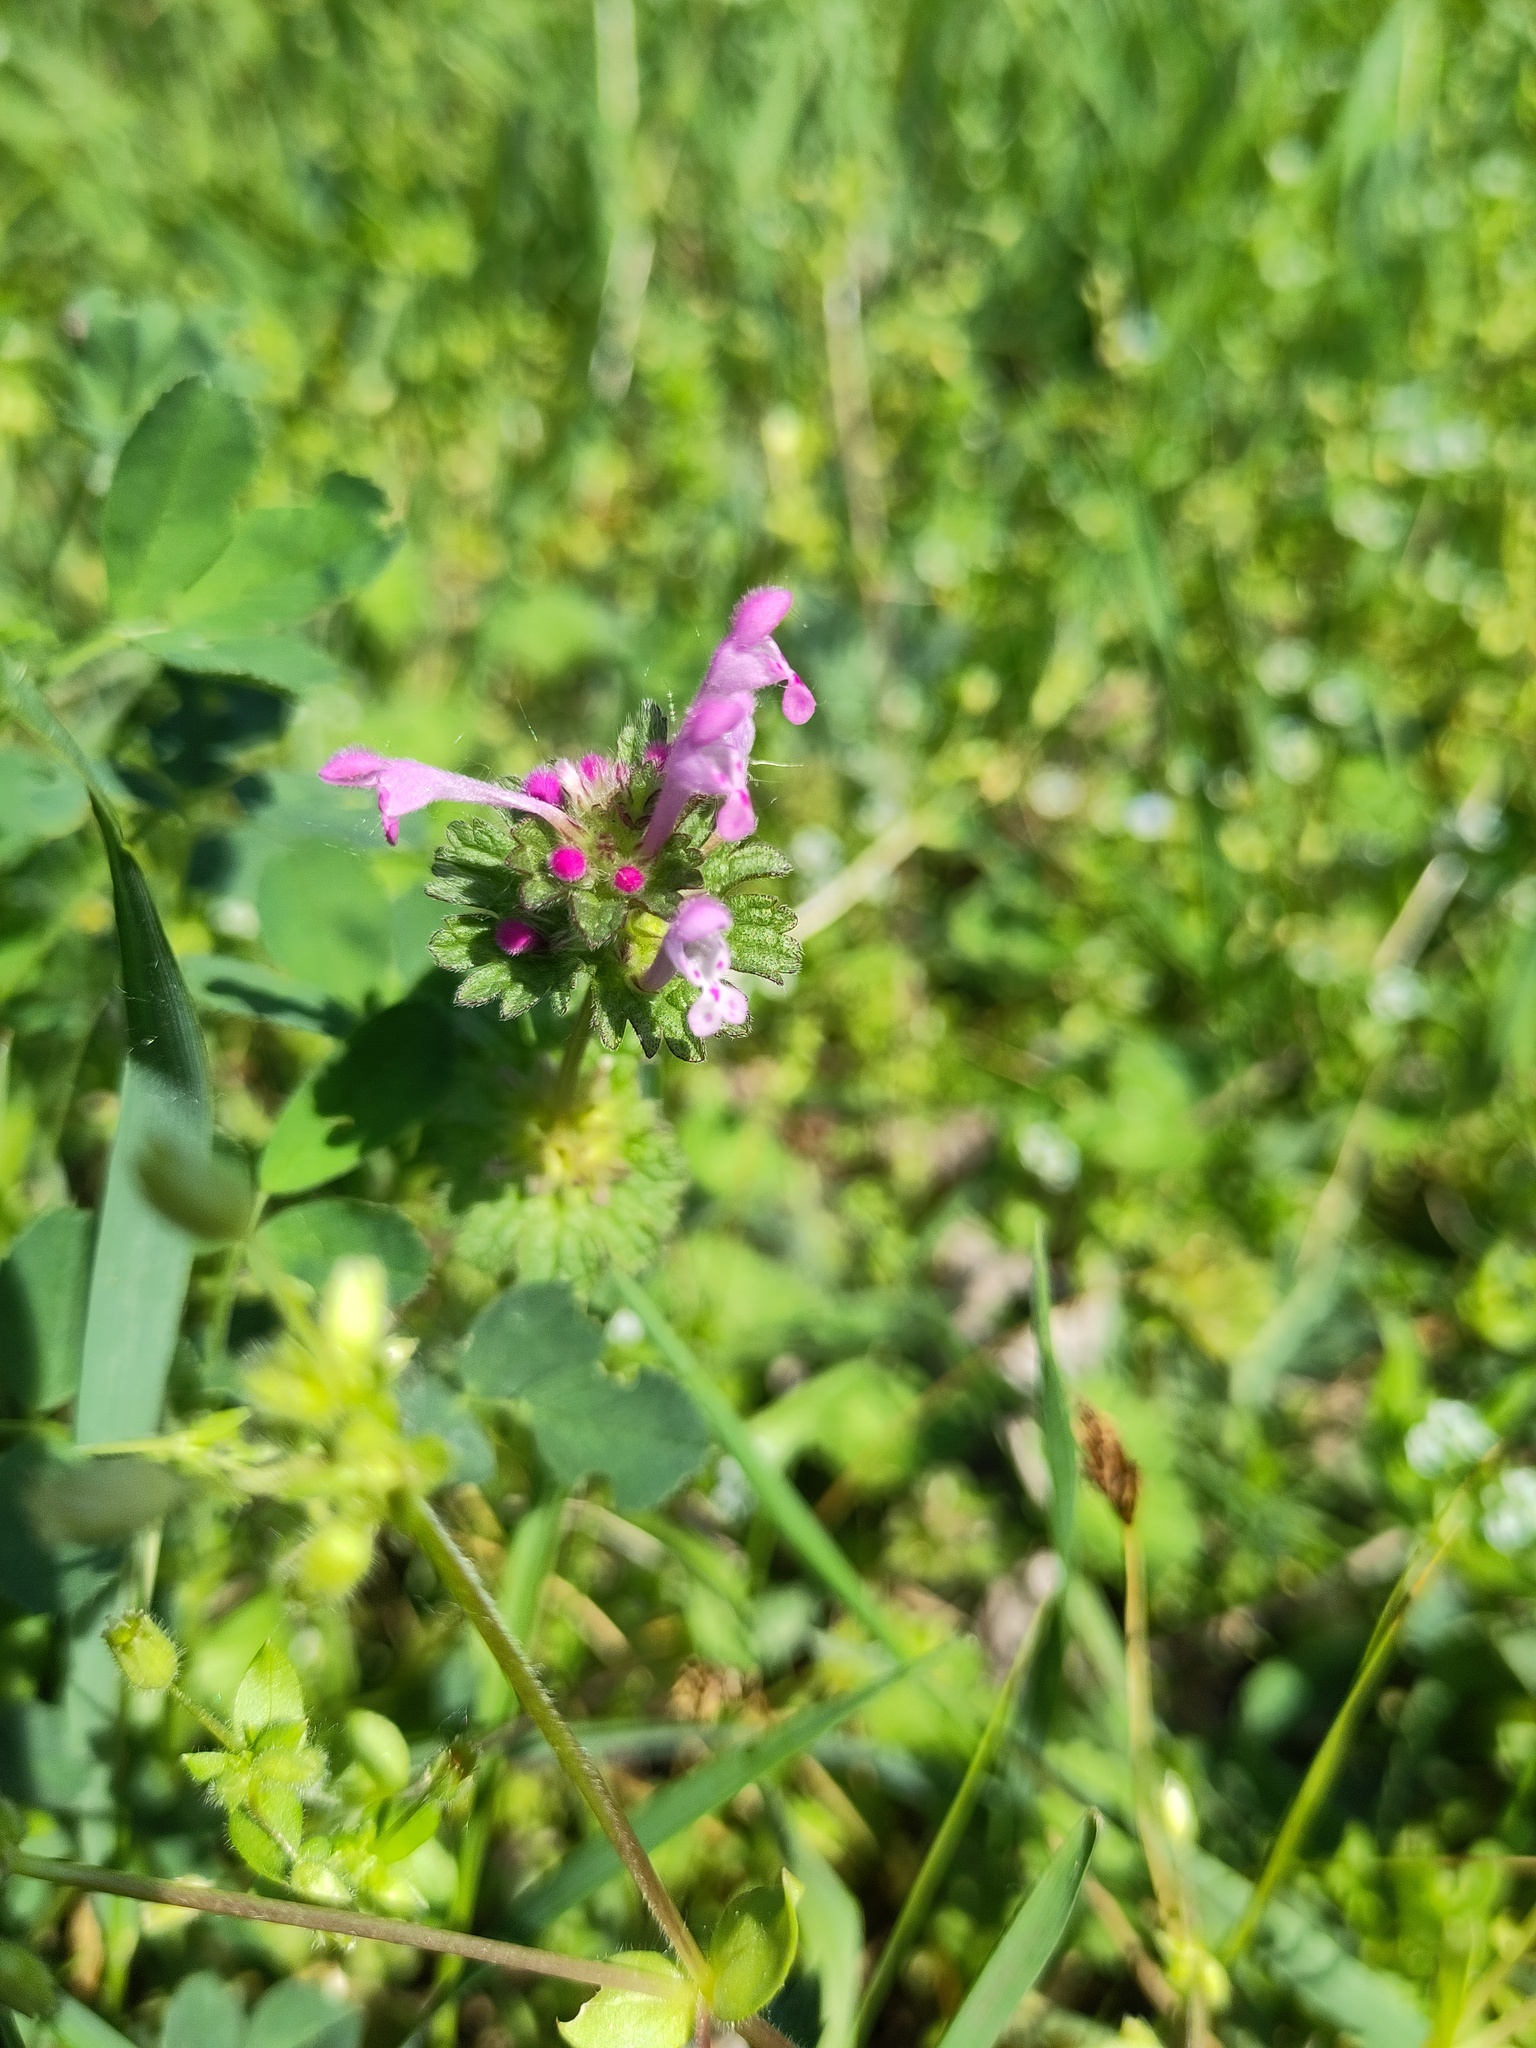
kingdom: Plantae
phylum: Tracheophyta
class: Magnoliopsida
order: Lamiales
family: Lamiaceae
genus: Lamium
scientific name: Lamium amplexicaule
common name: Henbit dead-nettle
